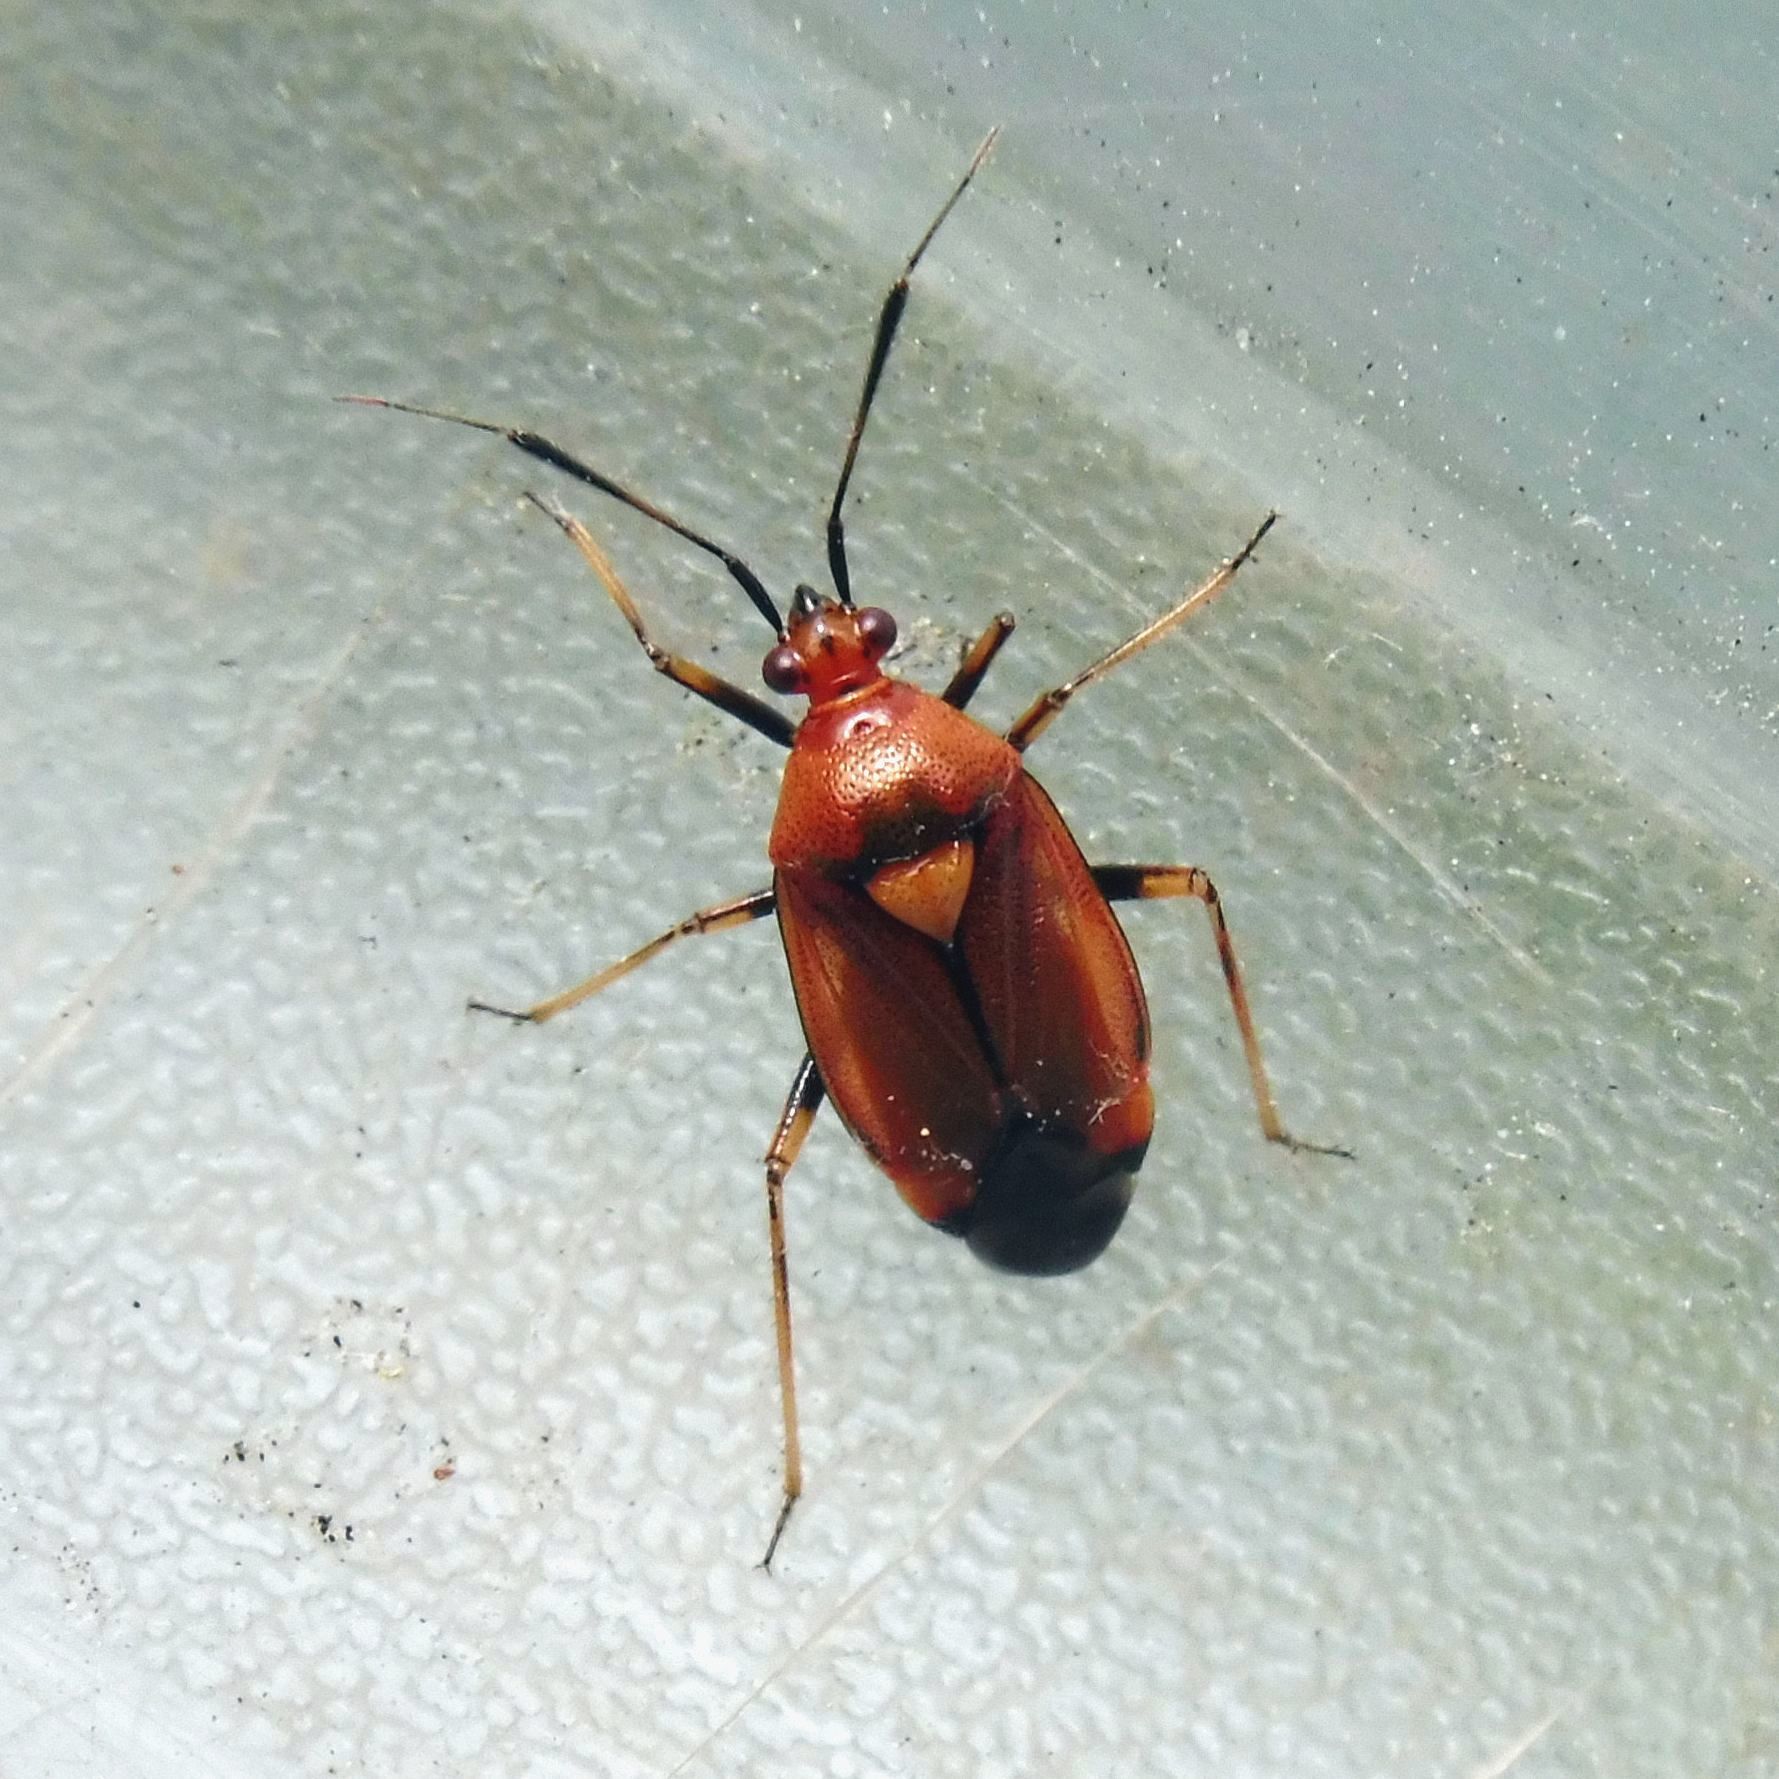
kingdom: Animalia
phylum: Arthropoda
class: Insecta
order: Hemiptera
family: Miridae
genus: Deraeocoris
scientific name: Deraeocoris ruber
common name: Plant bug
